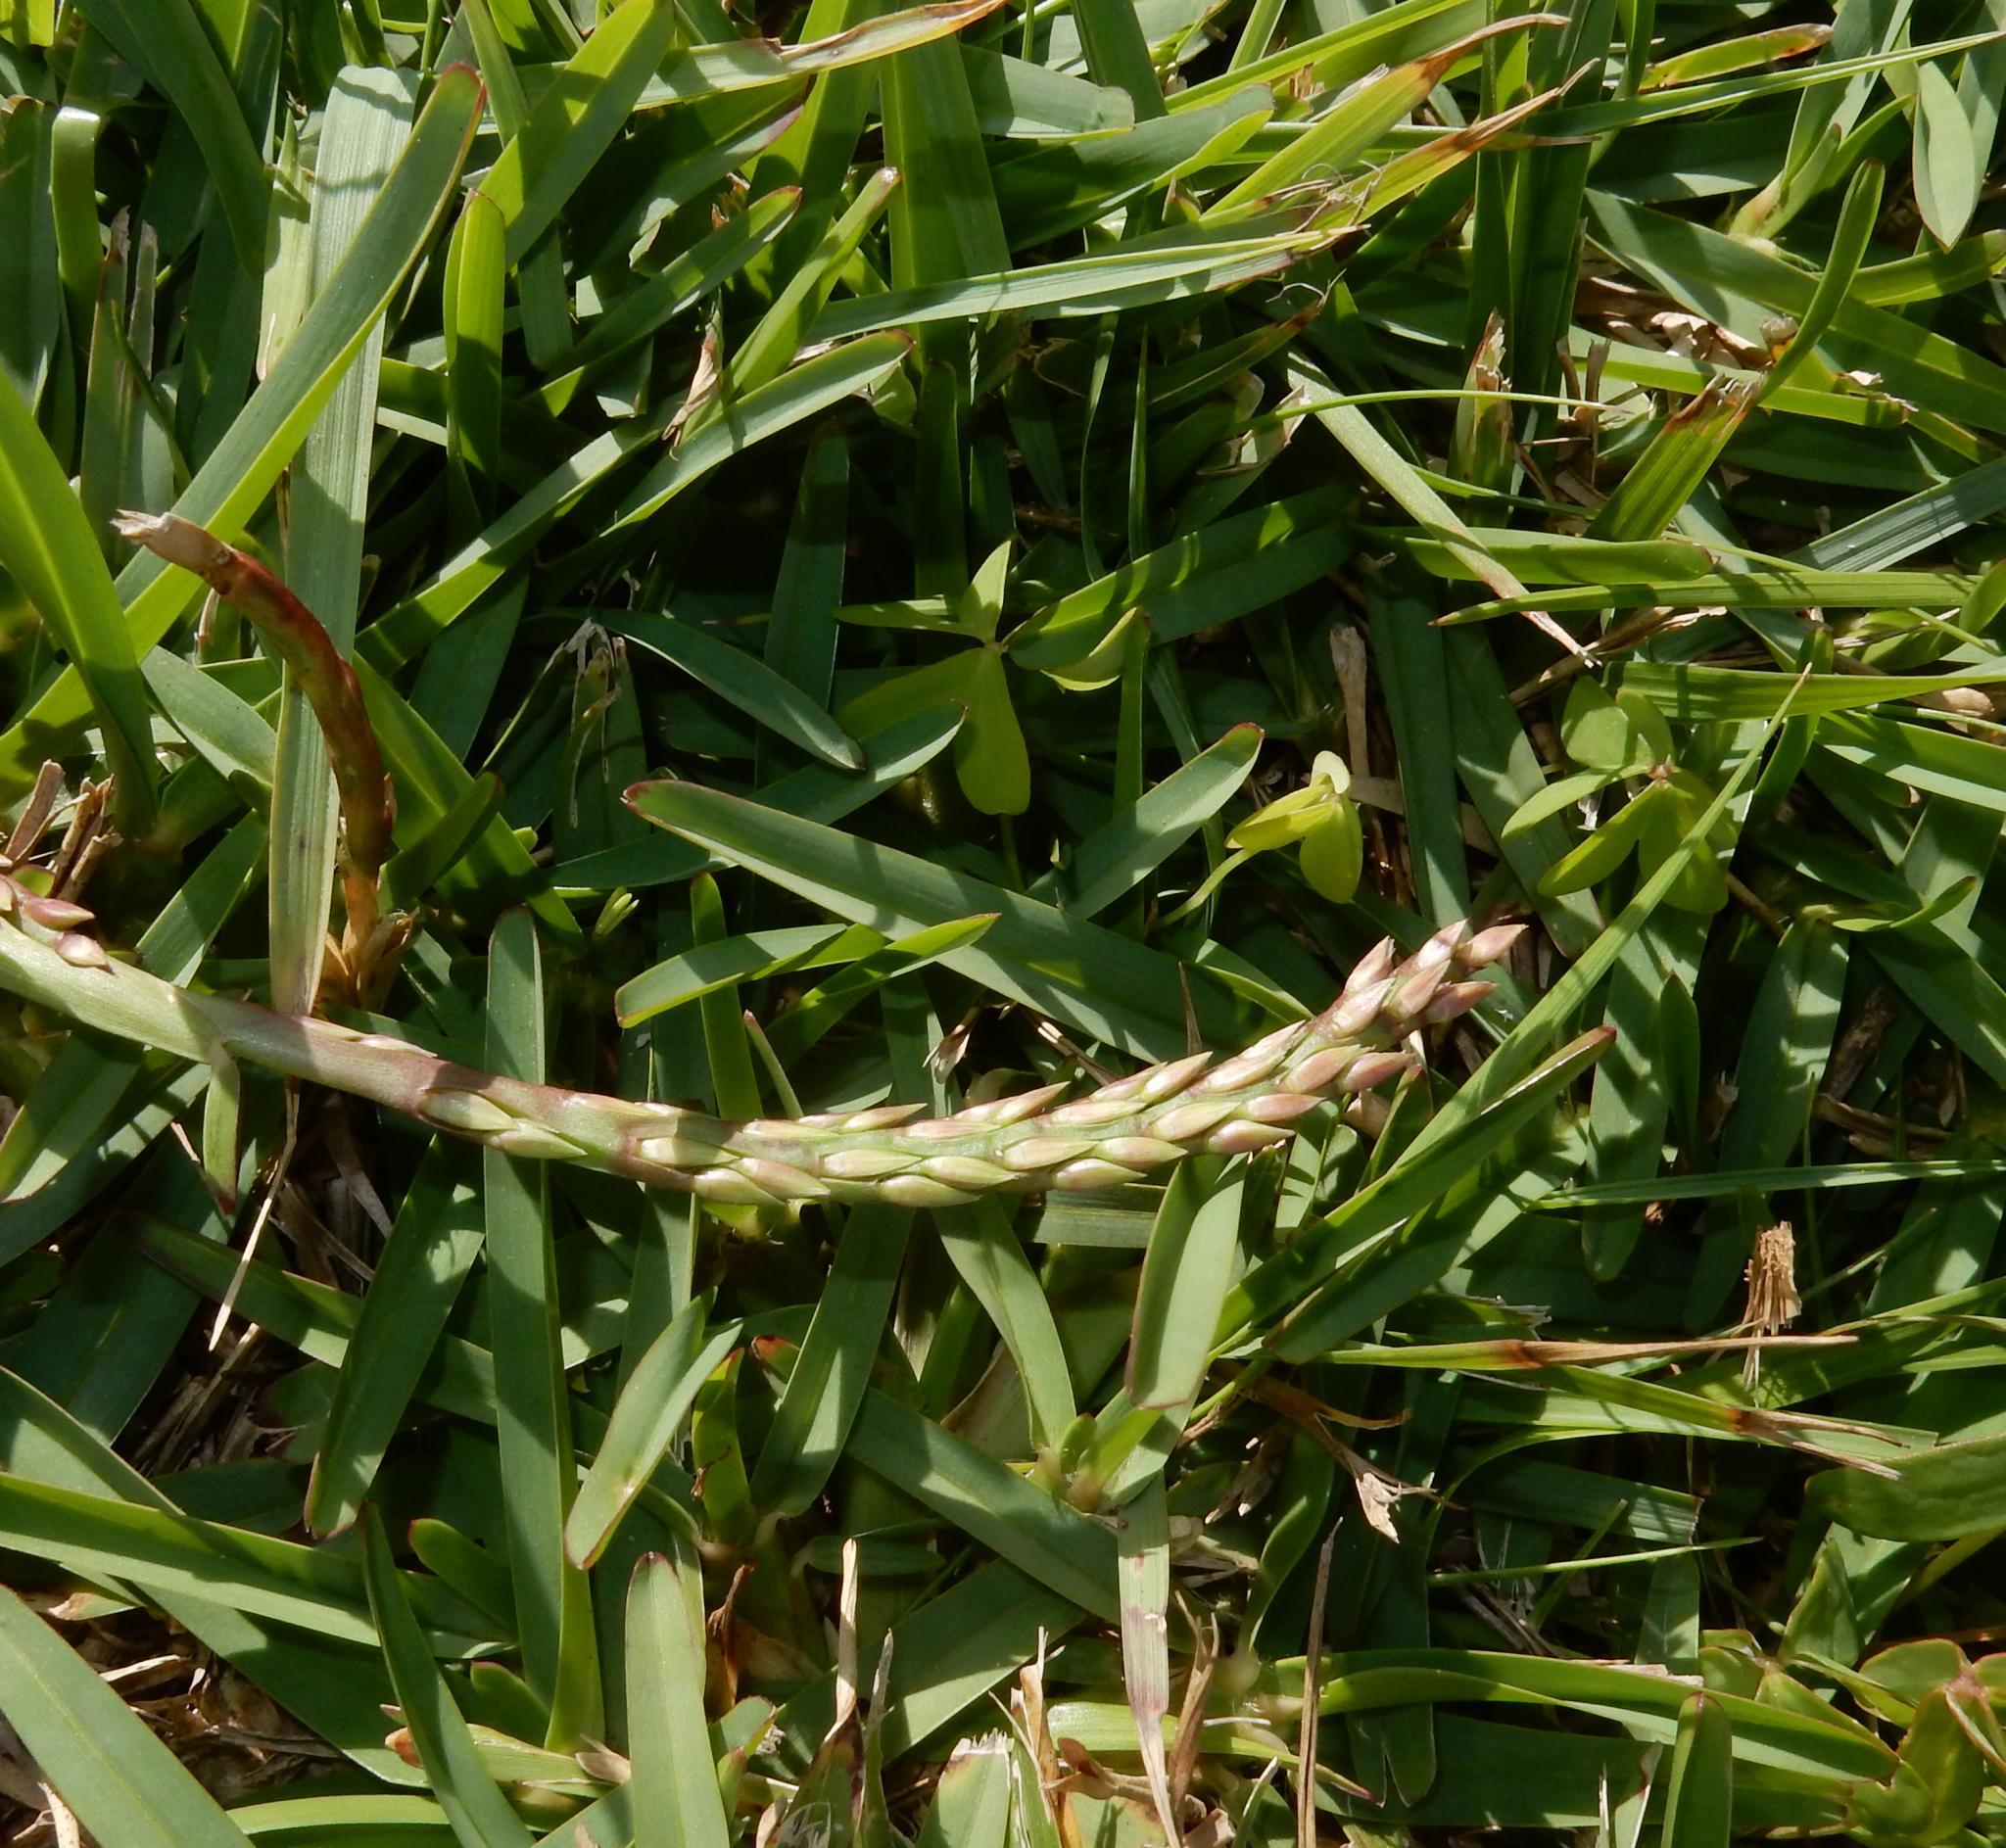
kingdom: Plantae
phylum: Tracheophyta
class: Liliopsida
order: Poales
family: Poaceae
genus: Stenotaphrum
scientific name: Stenotaphrum secundatum
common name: St. augustine grass
